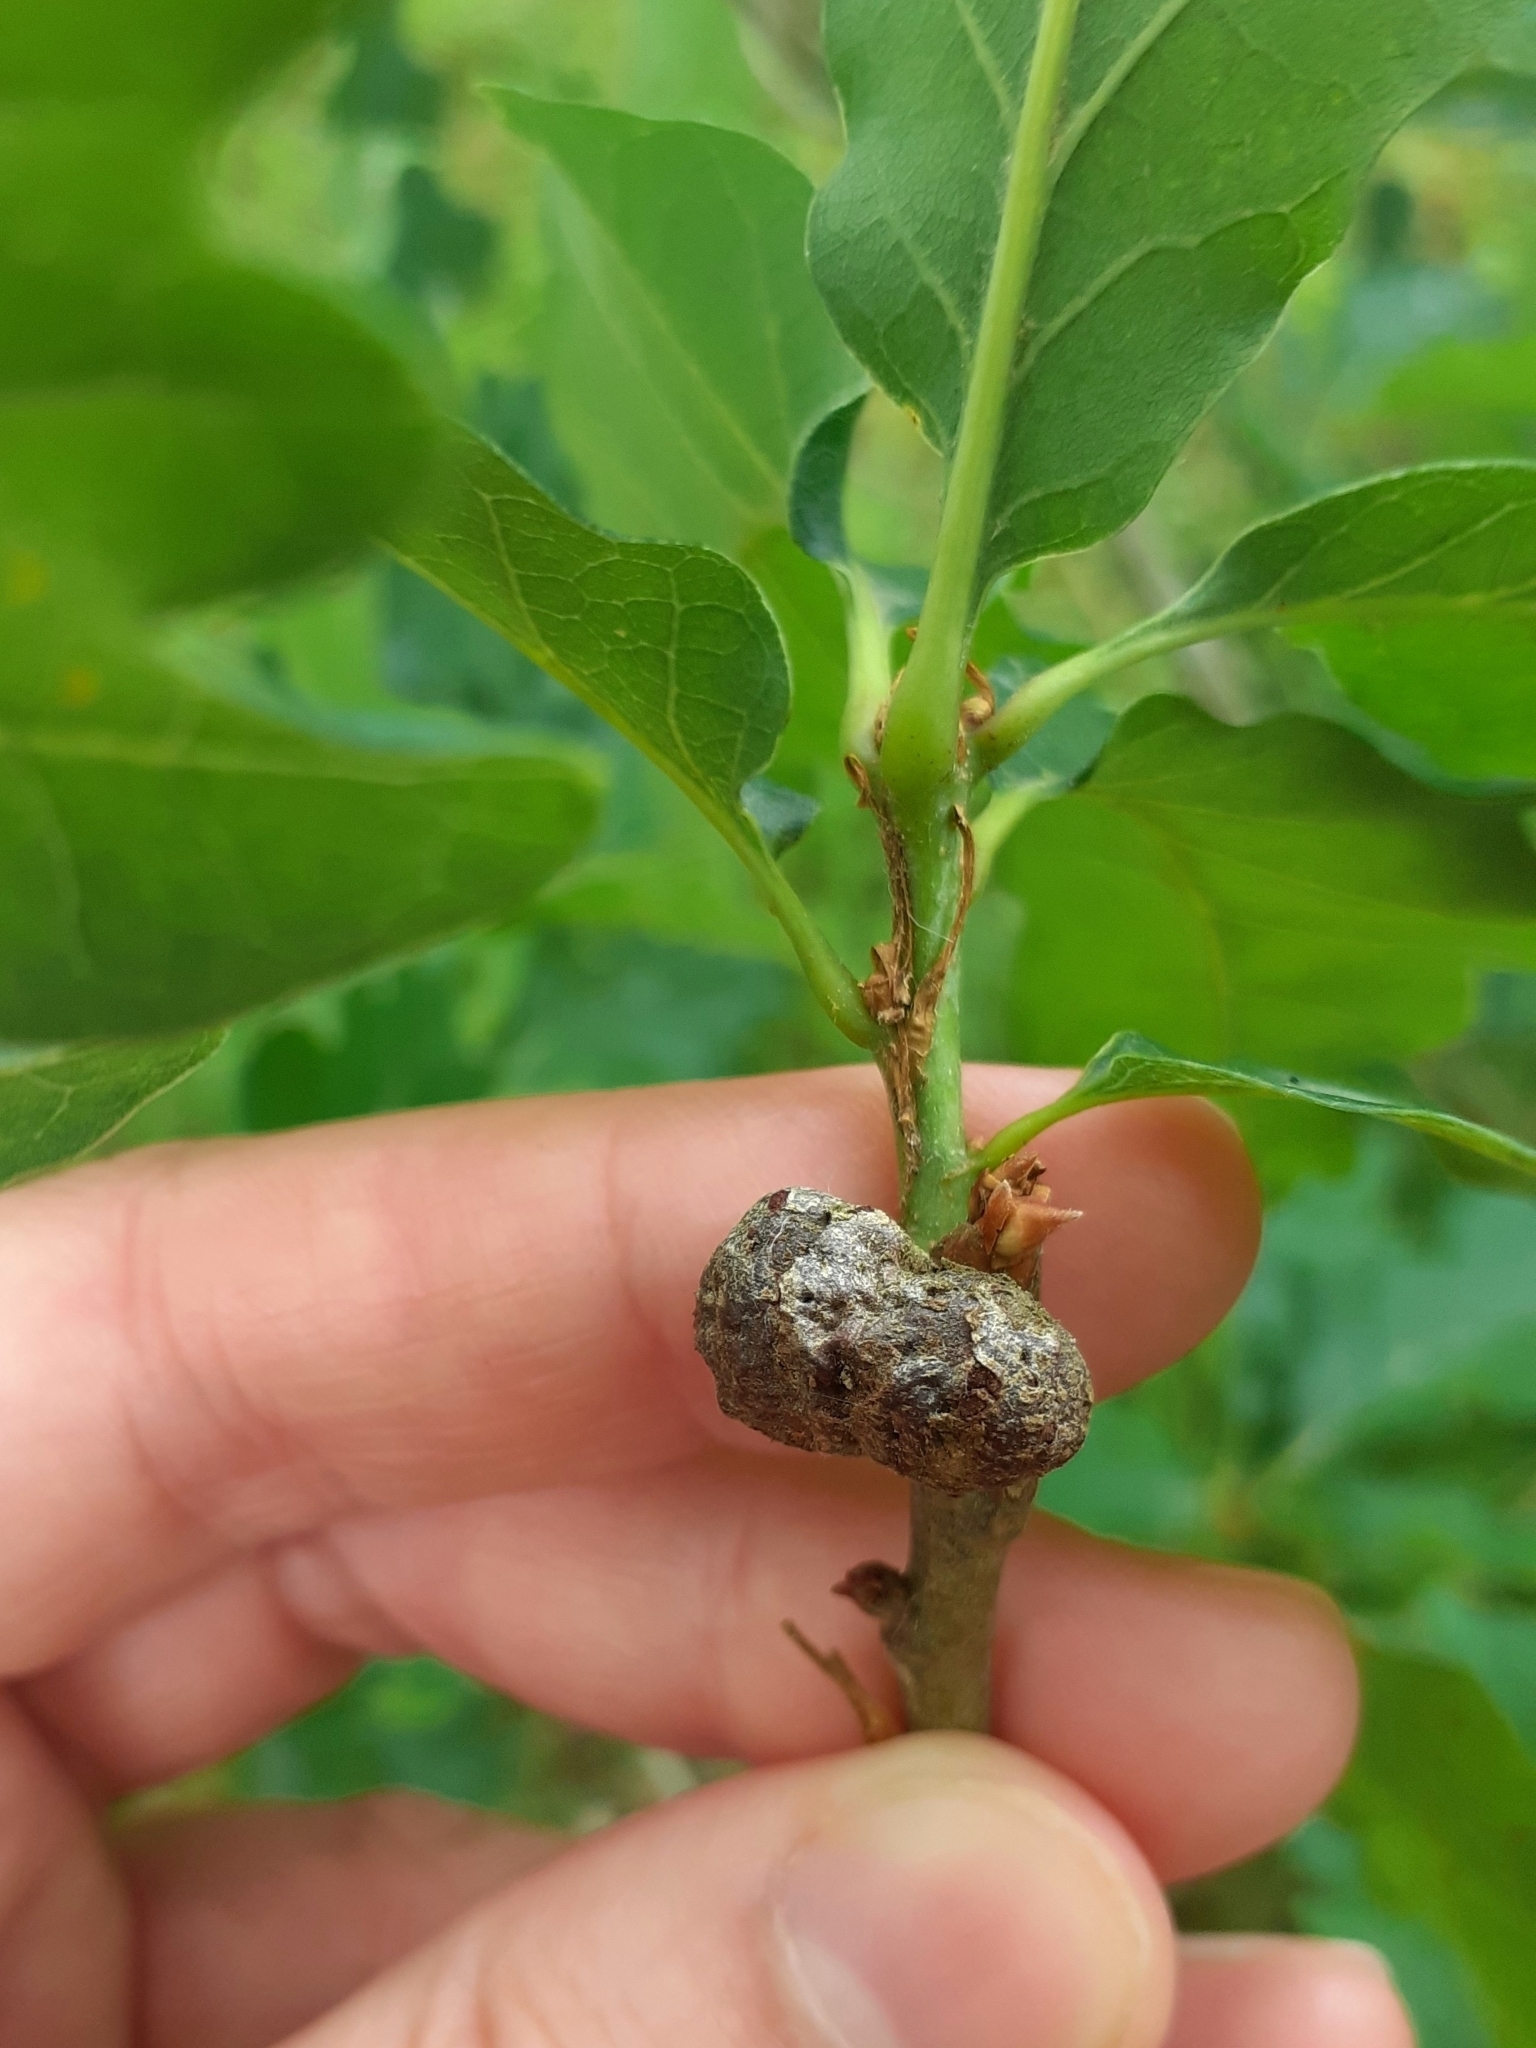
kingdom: Animalia
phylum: Arthropoda
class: Insecta
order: Hymenoptera
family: Cynipidae
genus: Andricus
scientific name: Andricus lignicolus
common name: Cola-nut gall
